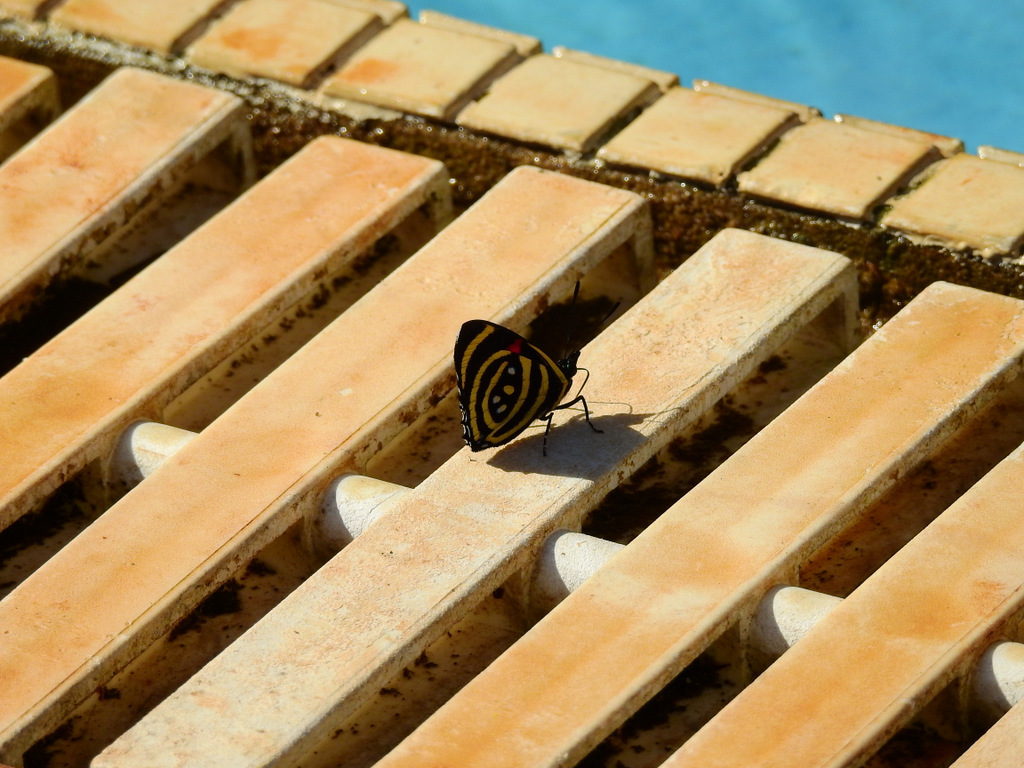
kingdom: Animalia
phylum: Arthropoda
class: Insecta
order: Lepidoptera
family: Nymphalidae
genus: Catagramma
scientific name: Catagramma Callicore hydaspes
